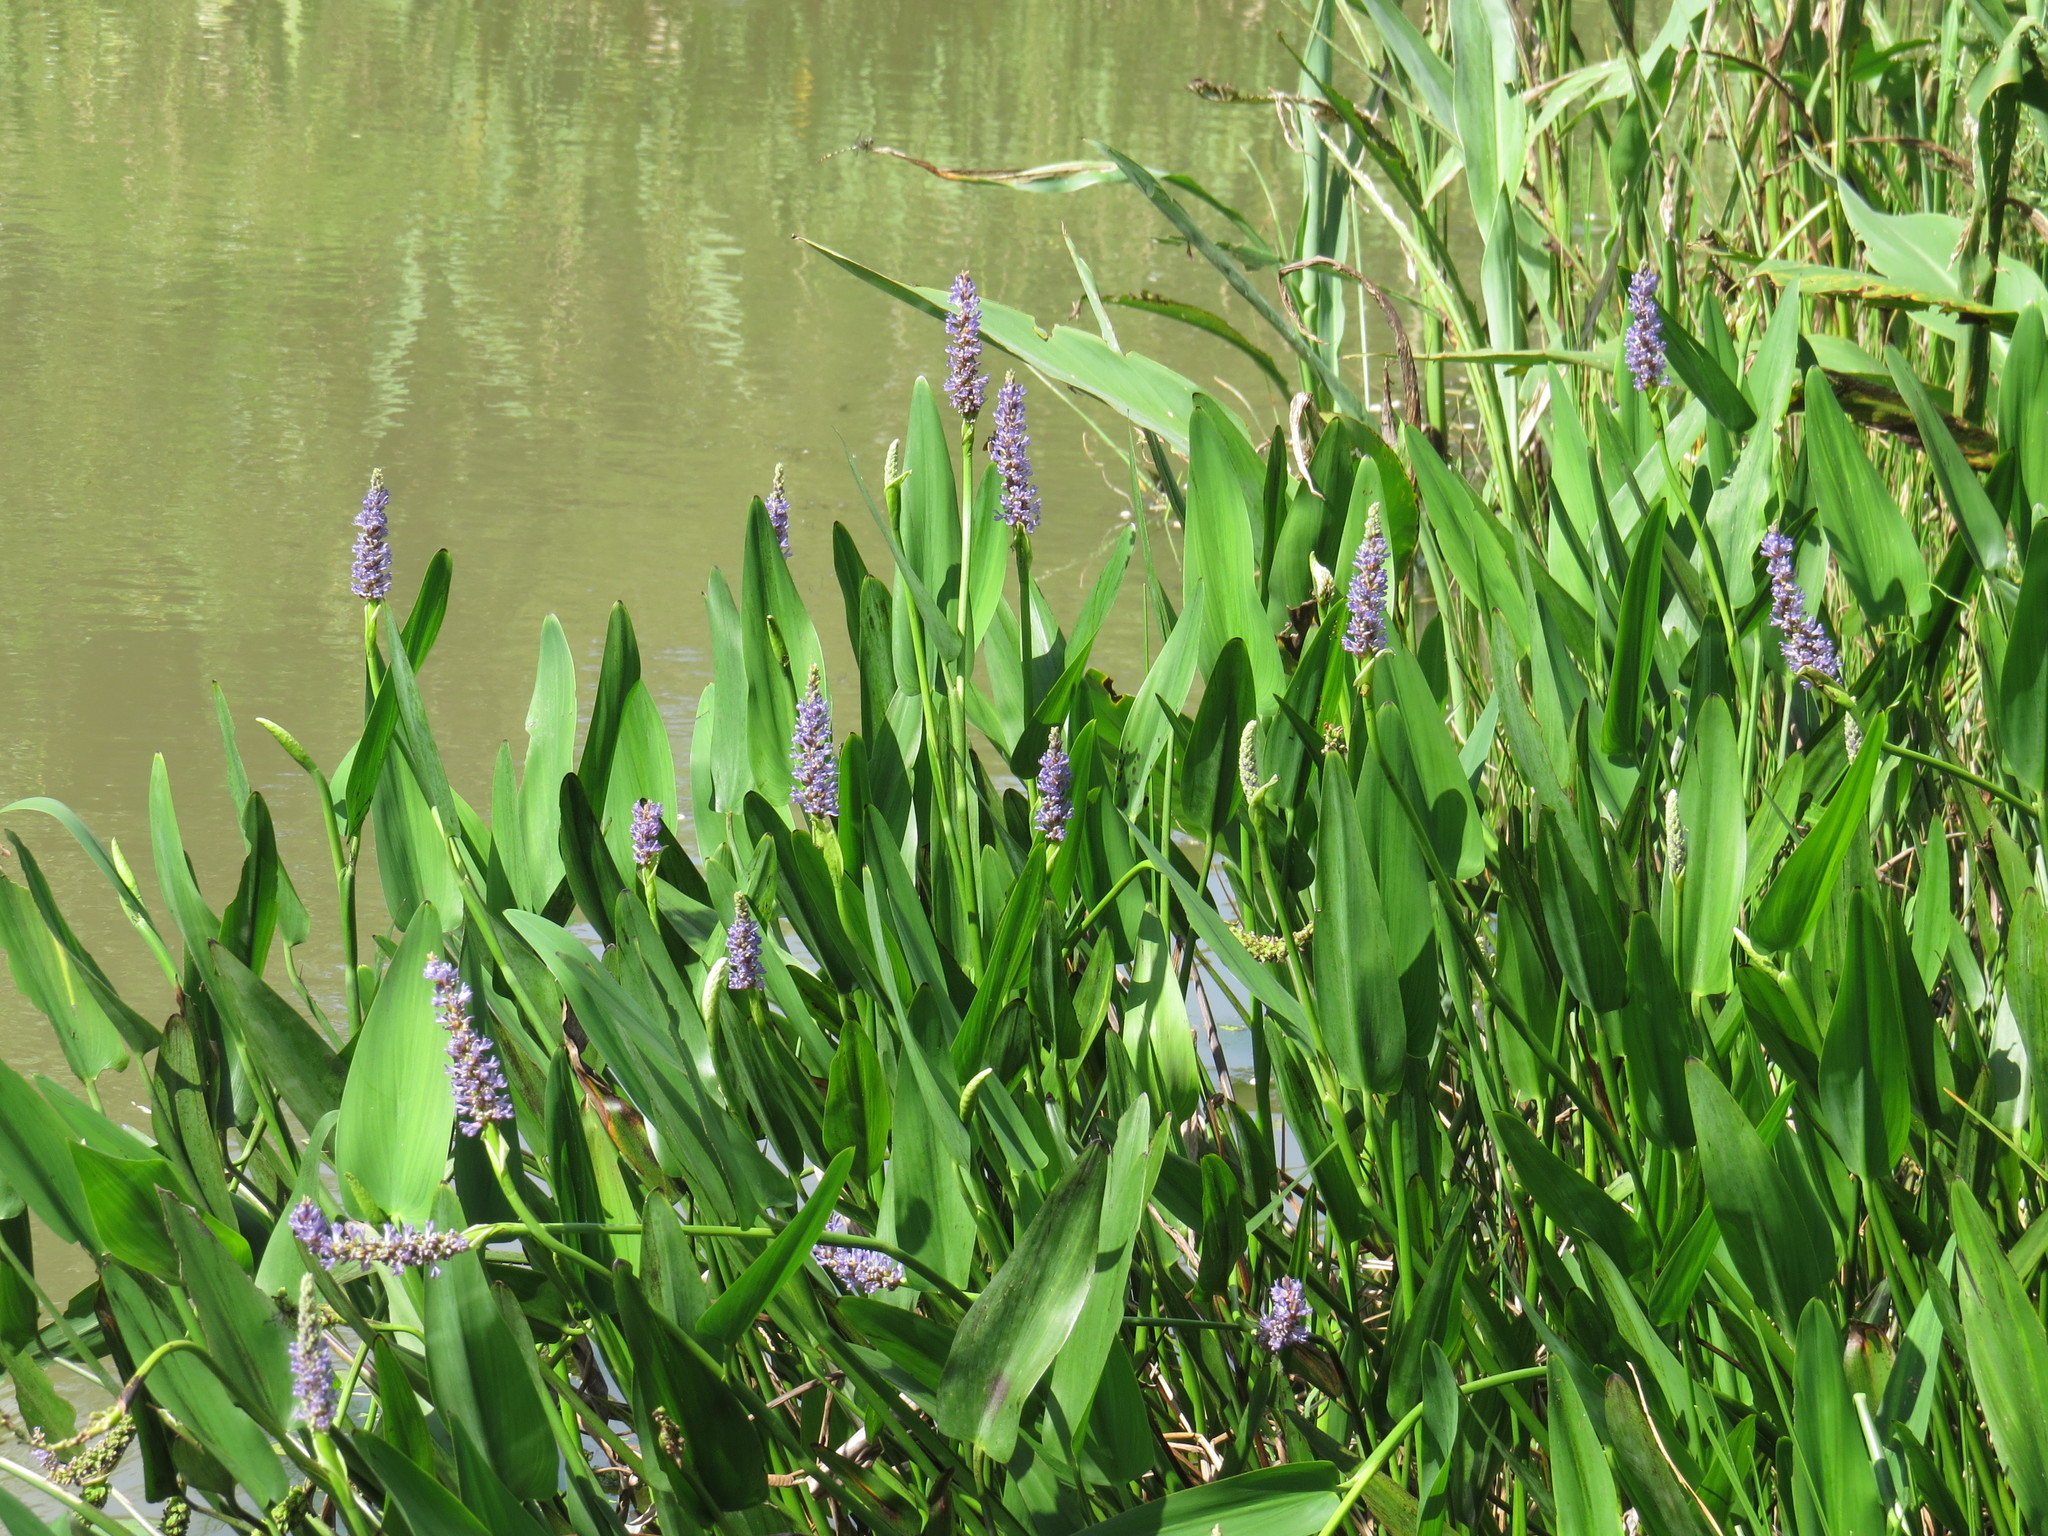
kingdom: Plantae
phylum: Tracheophyta
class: Liliopsida
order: Commelinales
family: Pontederiaceae
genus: Pontederia
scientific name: Pontederia cordata
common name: Pickerelweed
